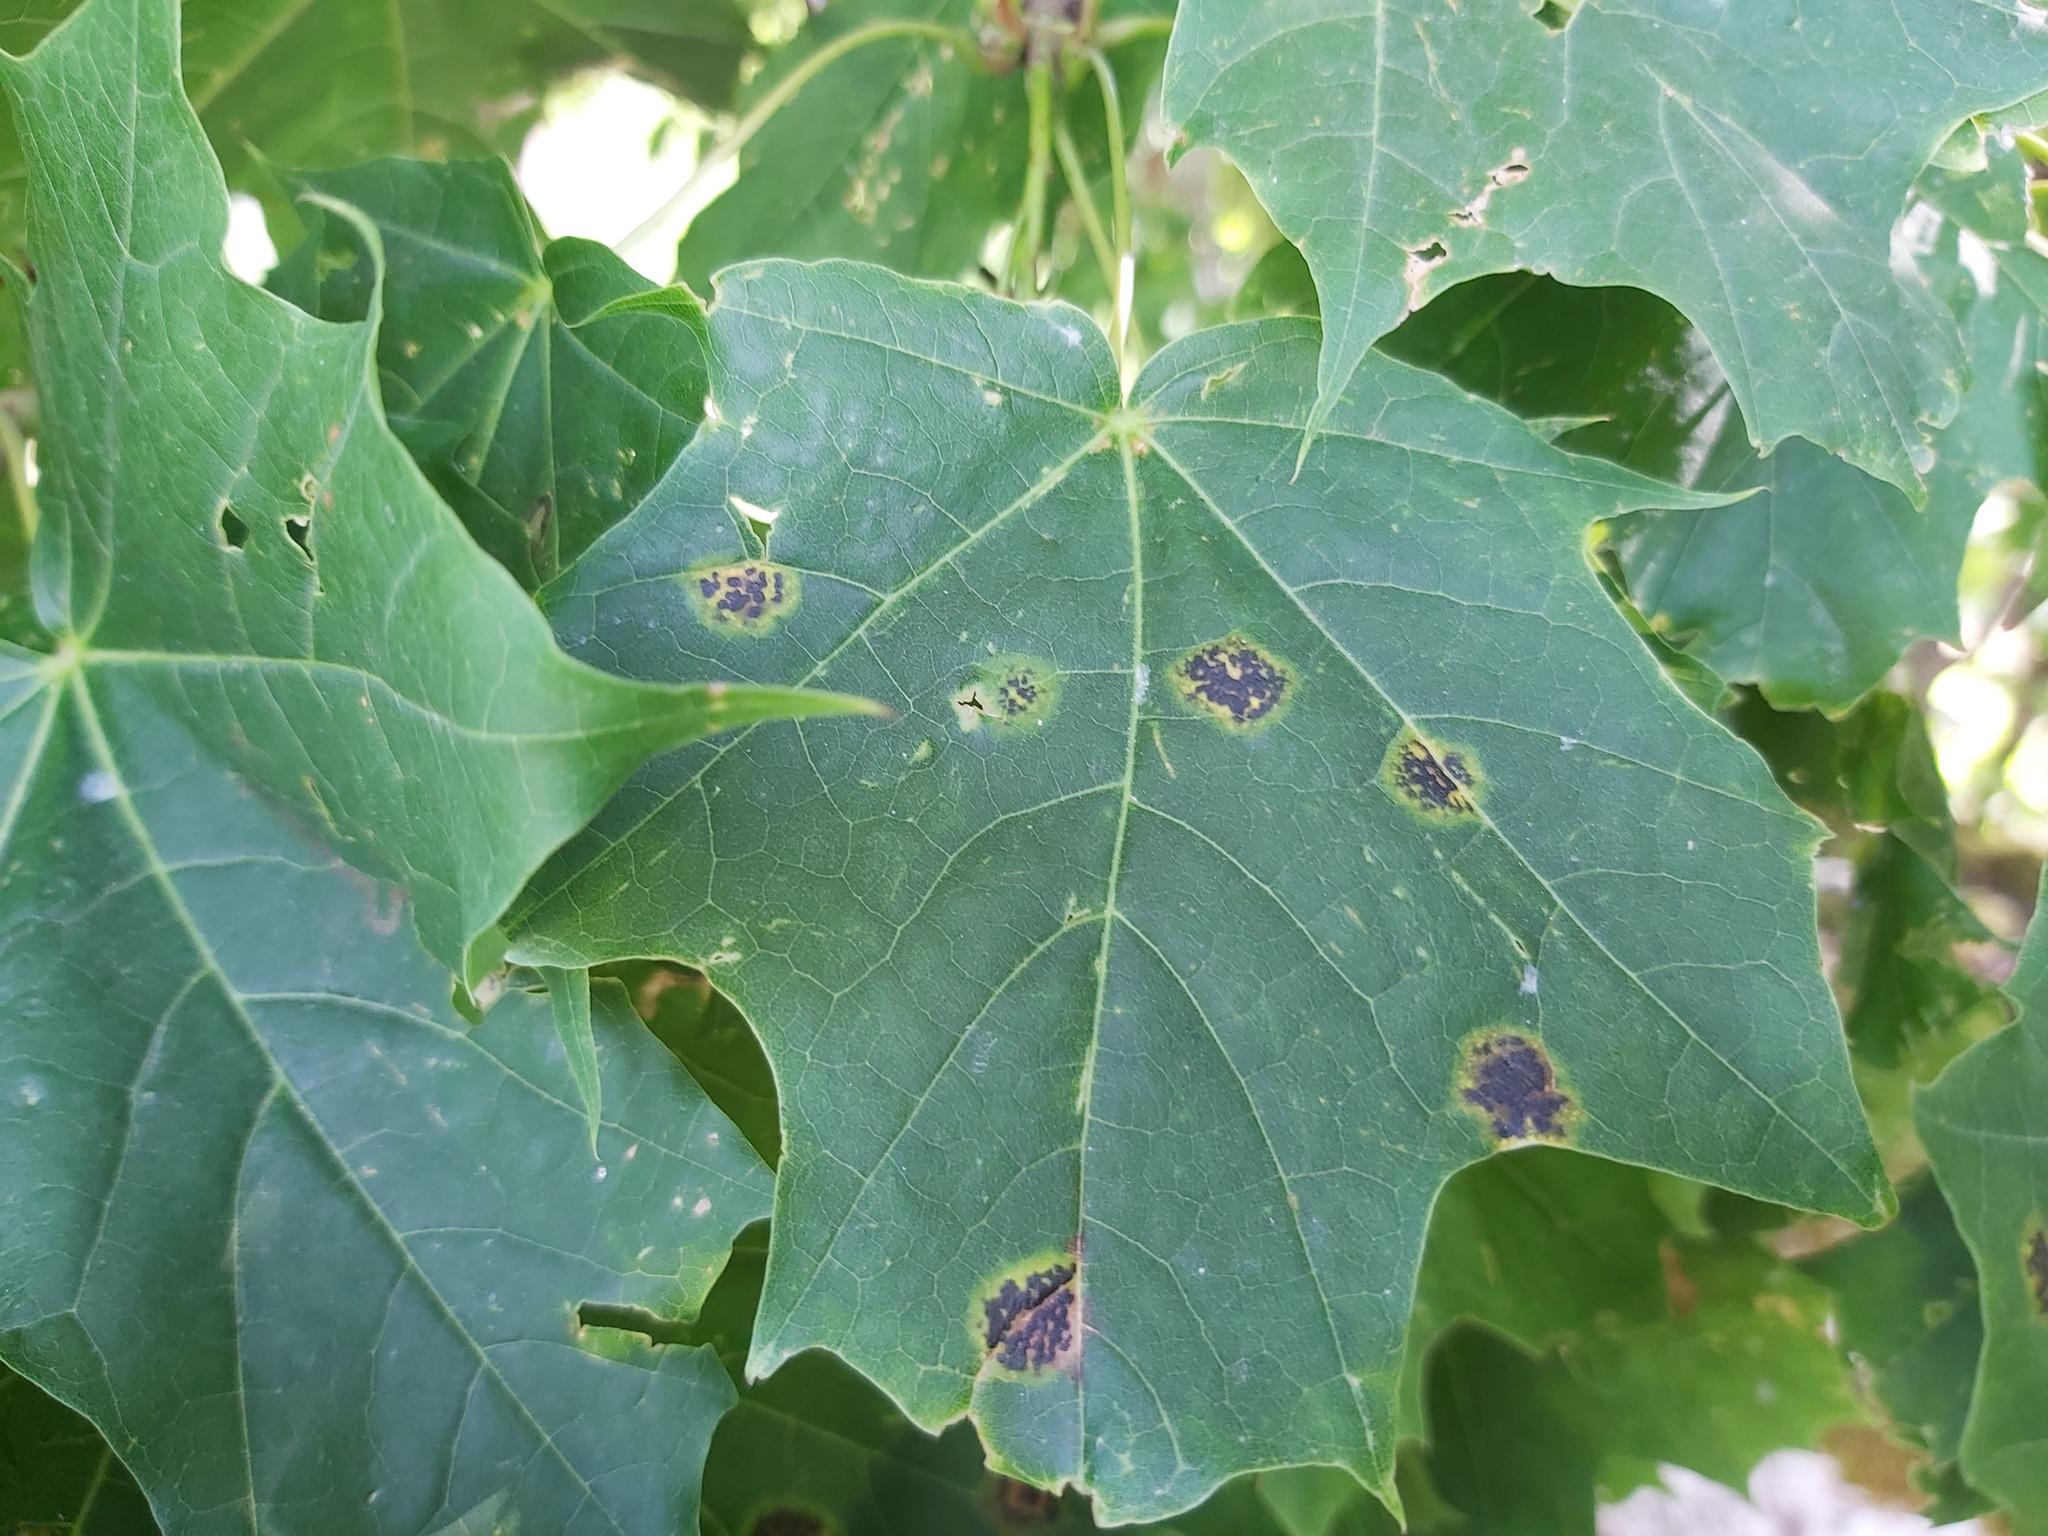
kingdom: Fungi
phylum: Ascomycota
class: Leotiomycetes
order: Rhytismatales
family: Rhytismataceae
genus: Rhytisma
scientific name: Rhytisma acerinum
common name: European tar spot
